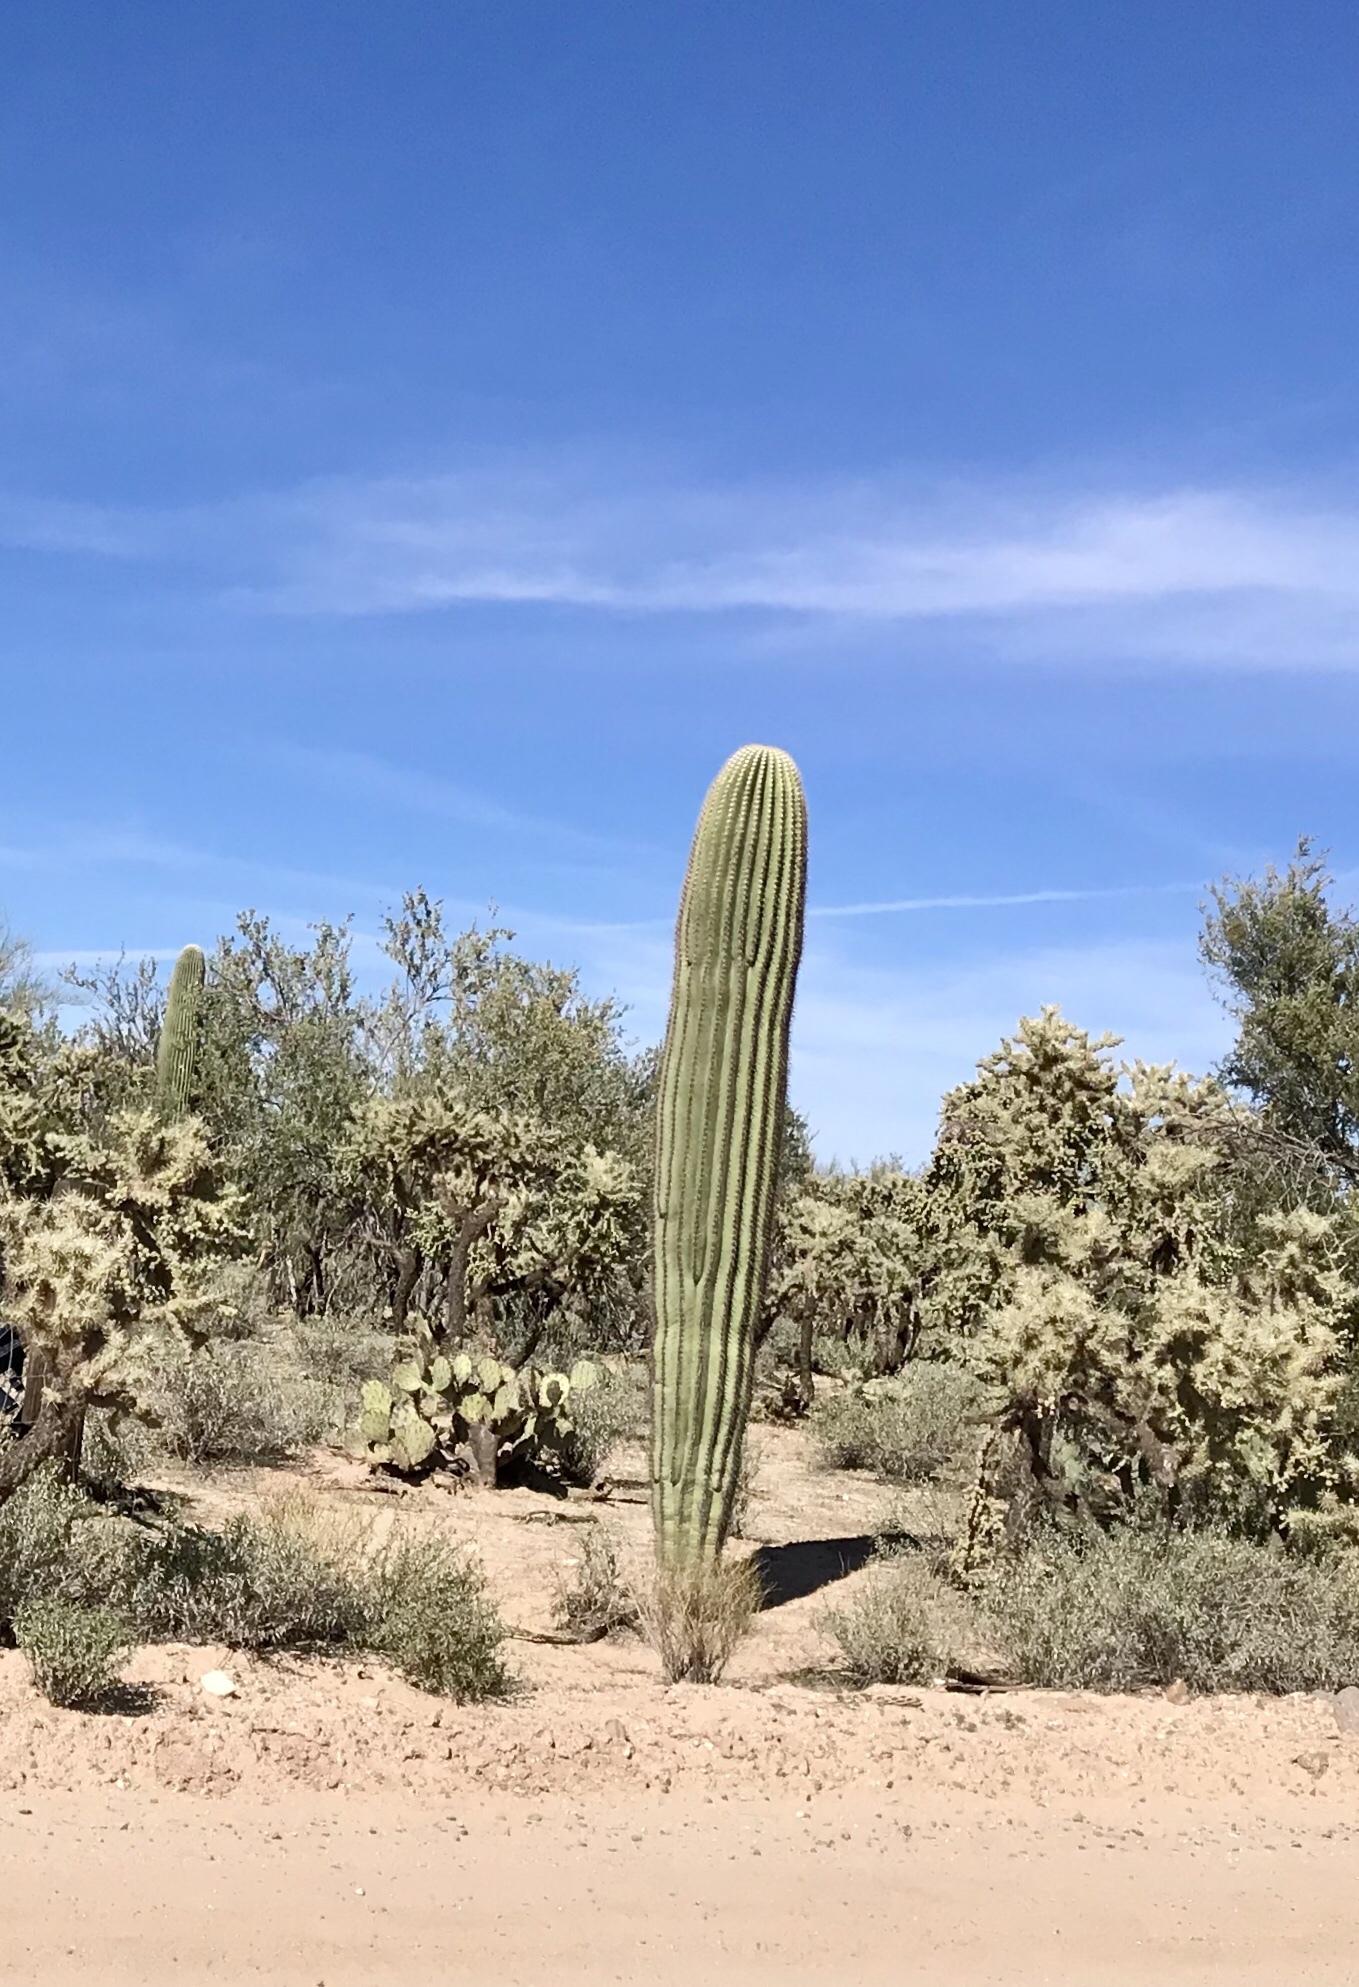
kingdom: Plantae
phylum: Tracheophyta
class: Magnoliopsida
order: Caryophyllales
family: Cactaceae
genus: Carnegiea
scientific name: Carnegiea gigantea
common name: Saguaro
